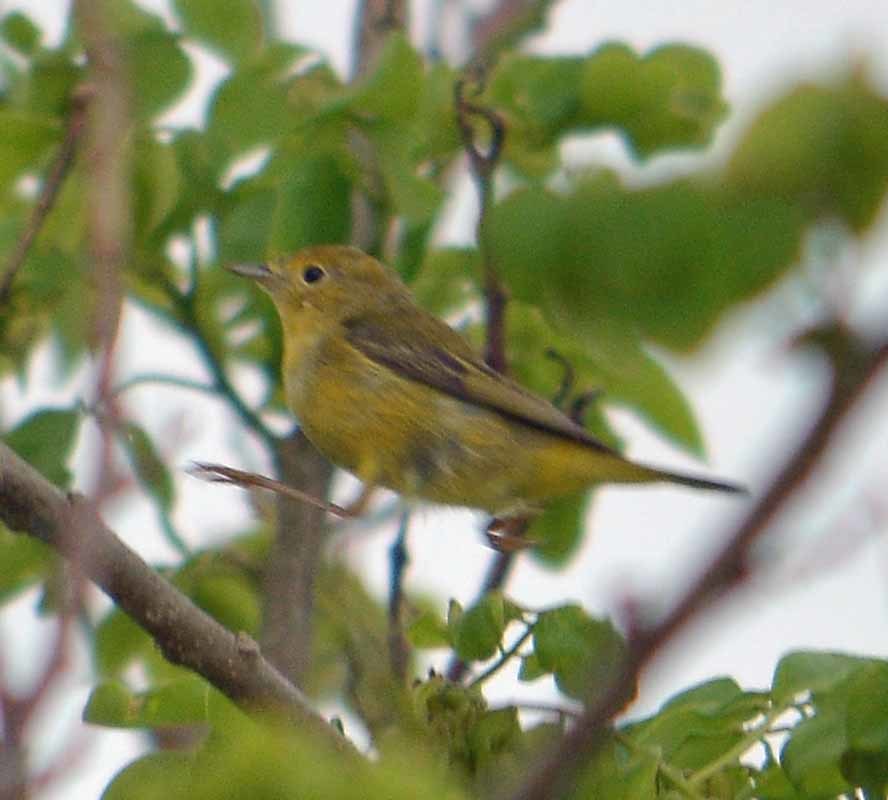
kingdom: Animalia
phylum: Chordata
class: Aves
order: Passeriformes
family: Parulidae
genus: Setophaga
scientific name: Setophaga petechia
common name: Yellow warbler
